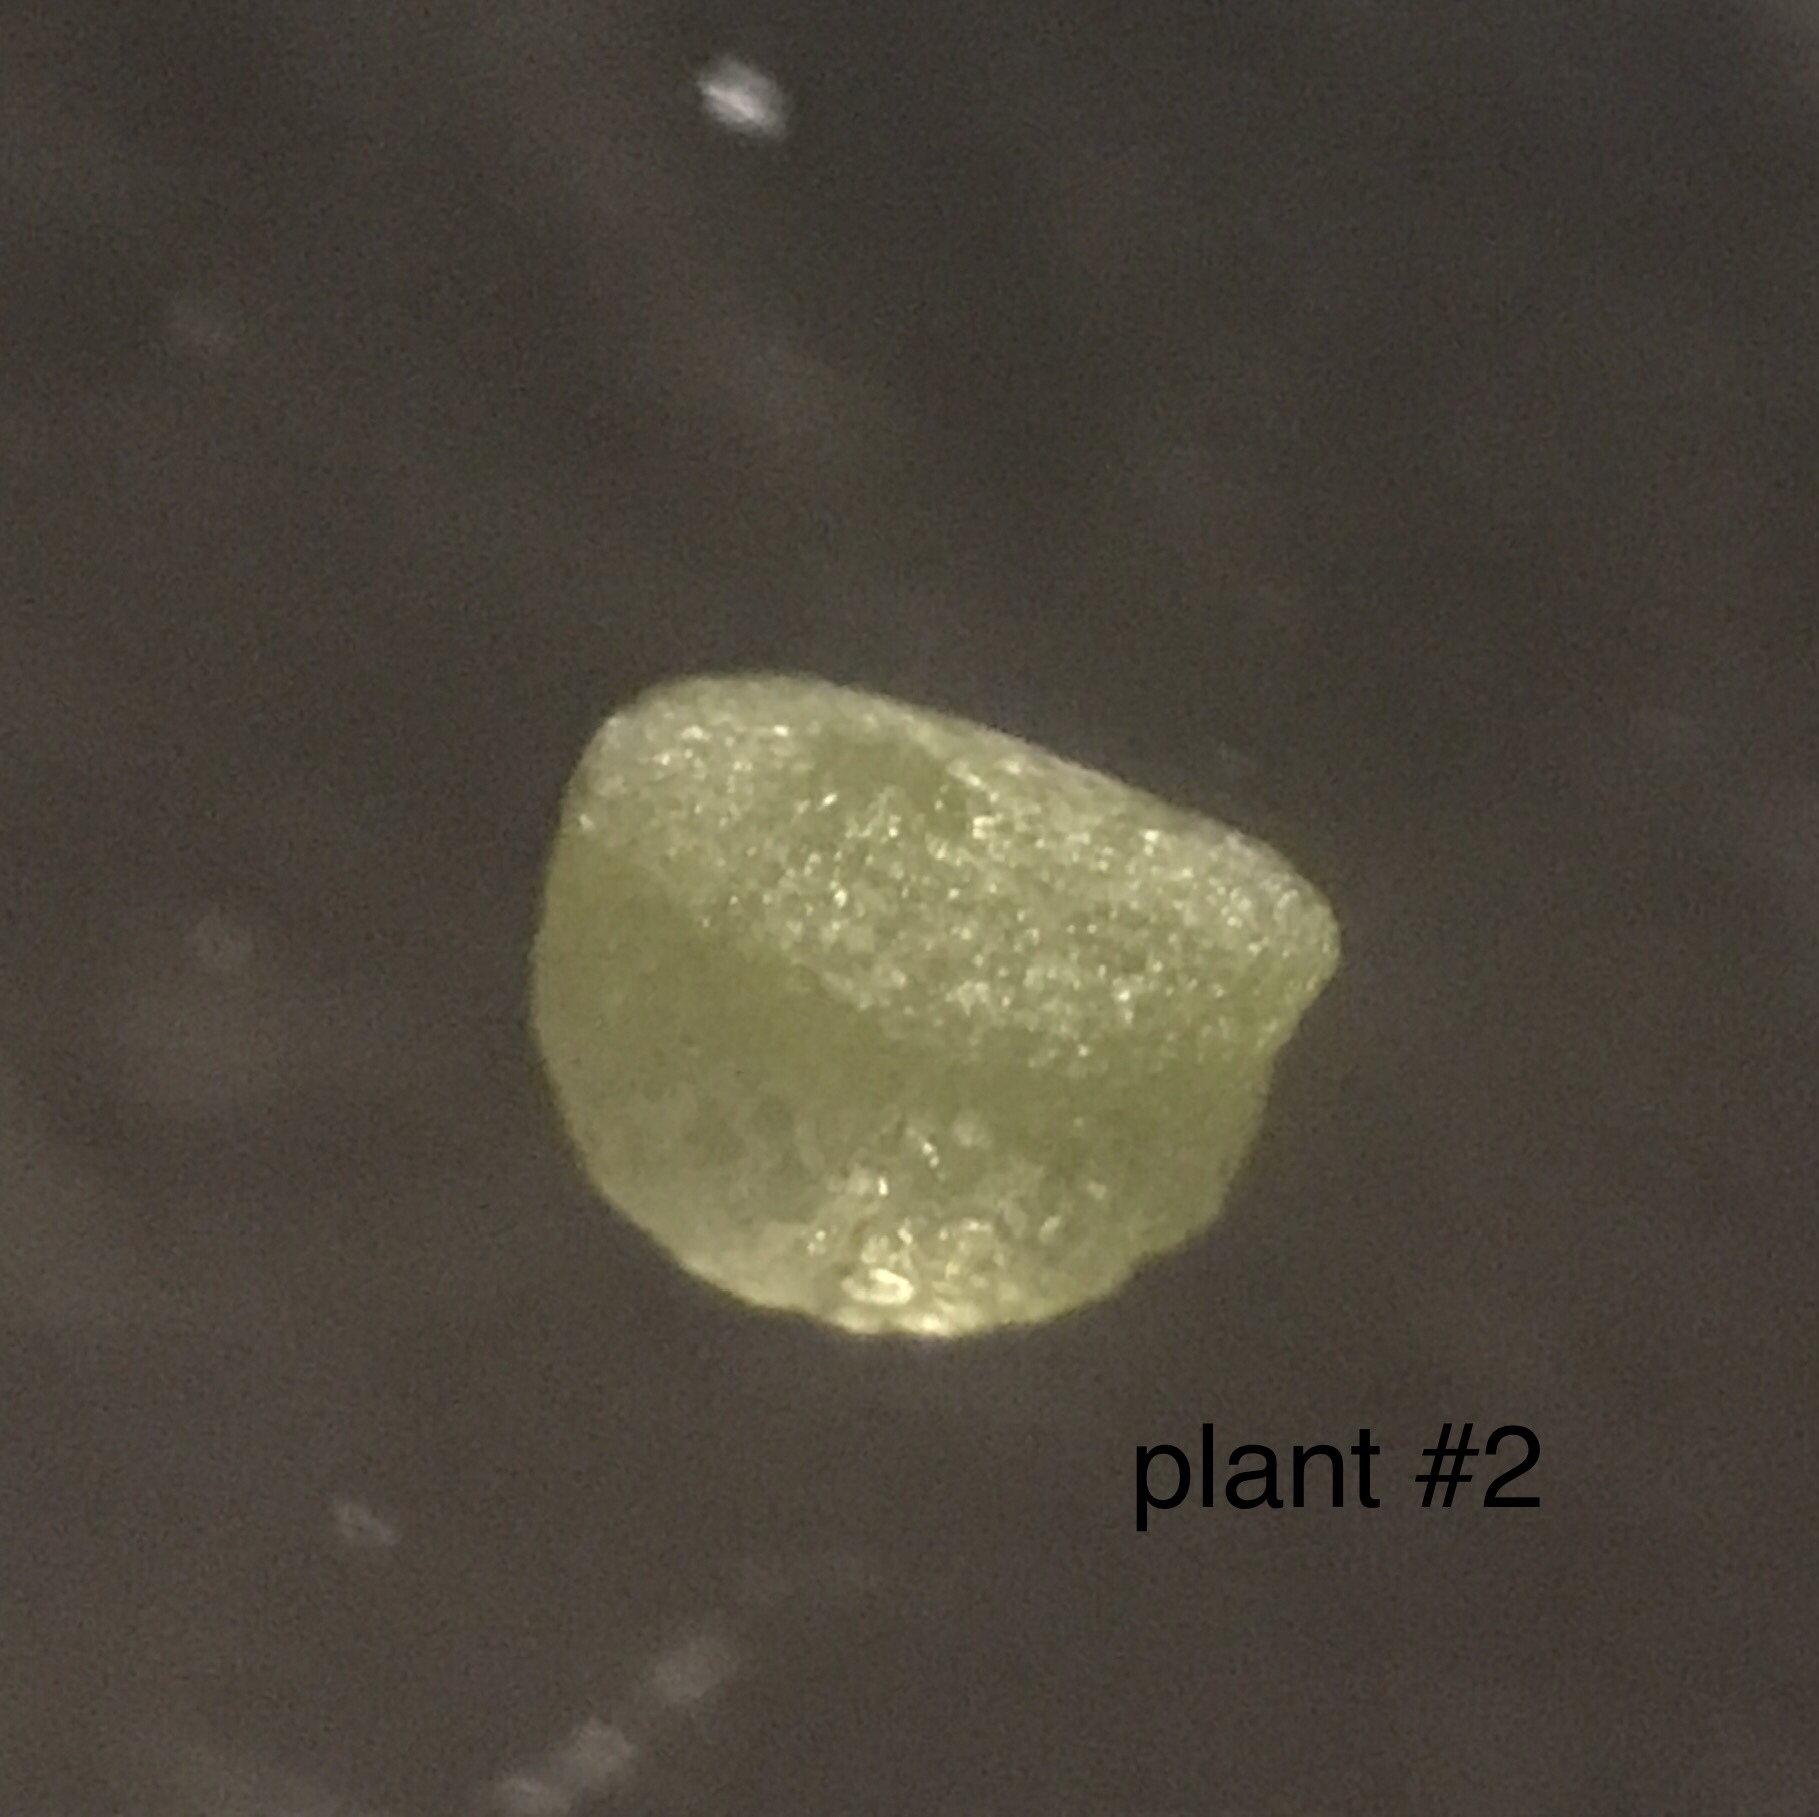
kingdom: Plantae
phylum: Tracheophyta
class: Liliopsida
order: Alismatales
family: Araceae
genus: Wolffia
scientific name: Wolffia brasiliensis
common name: Brazilian watermeal
